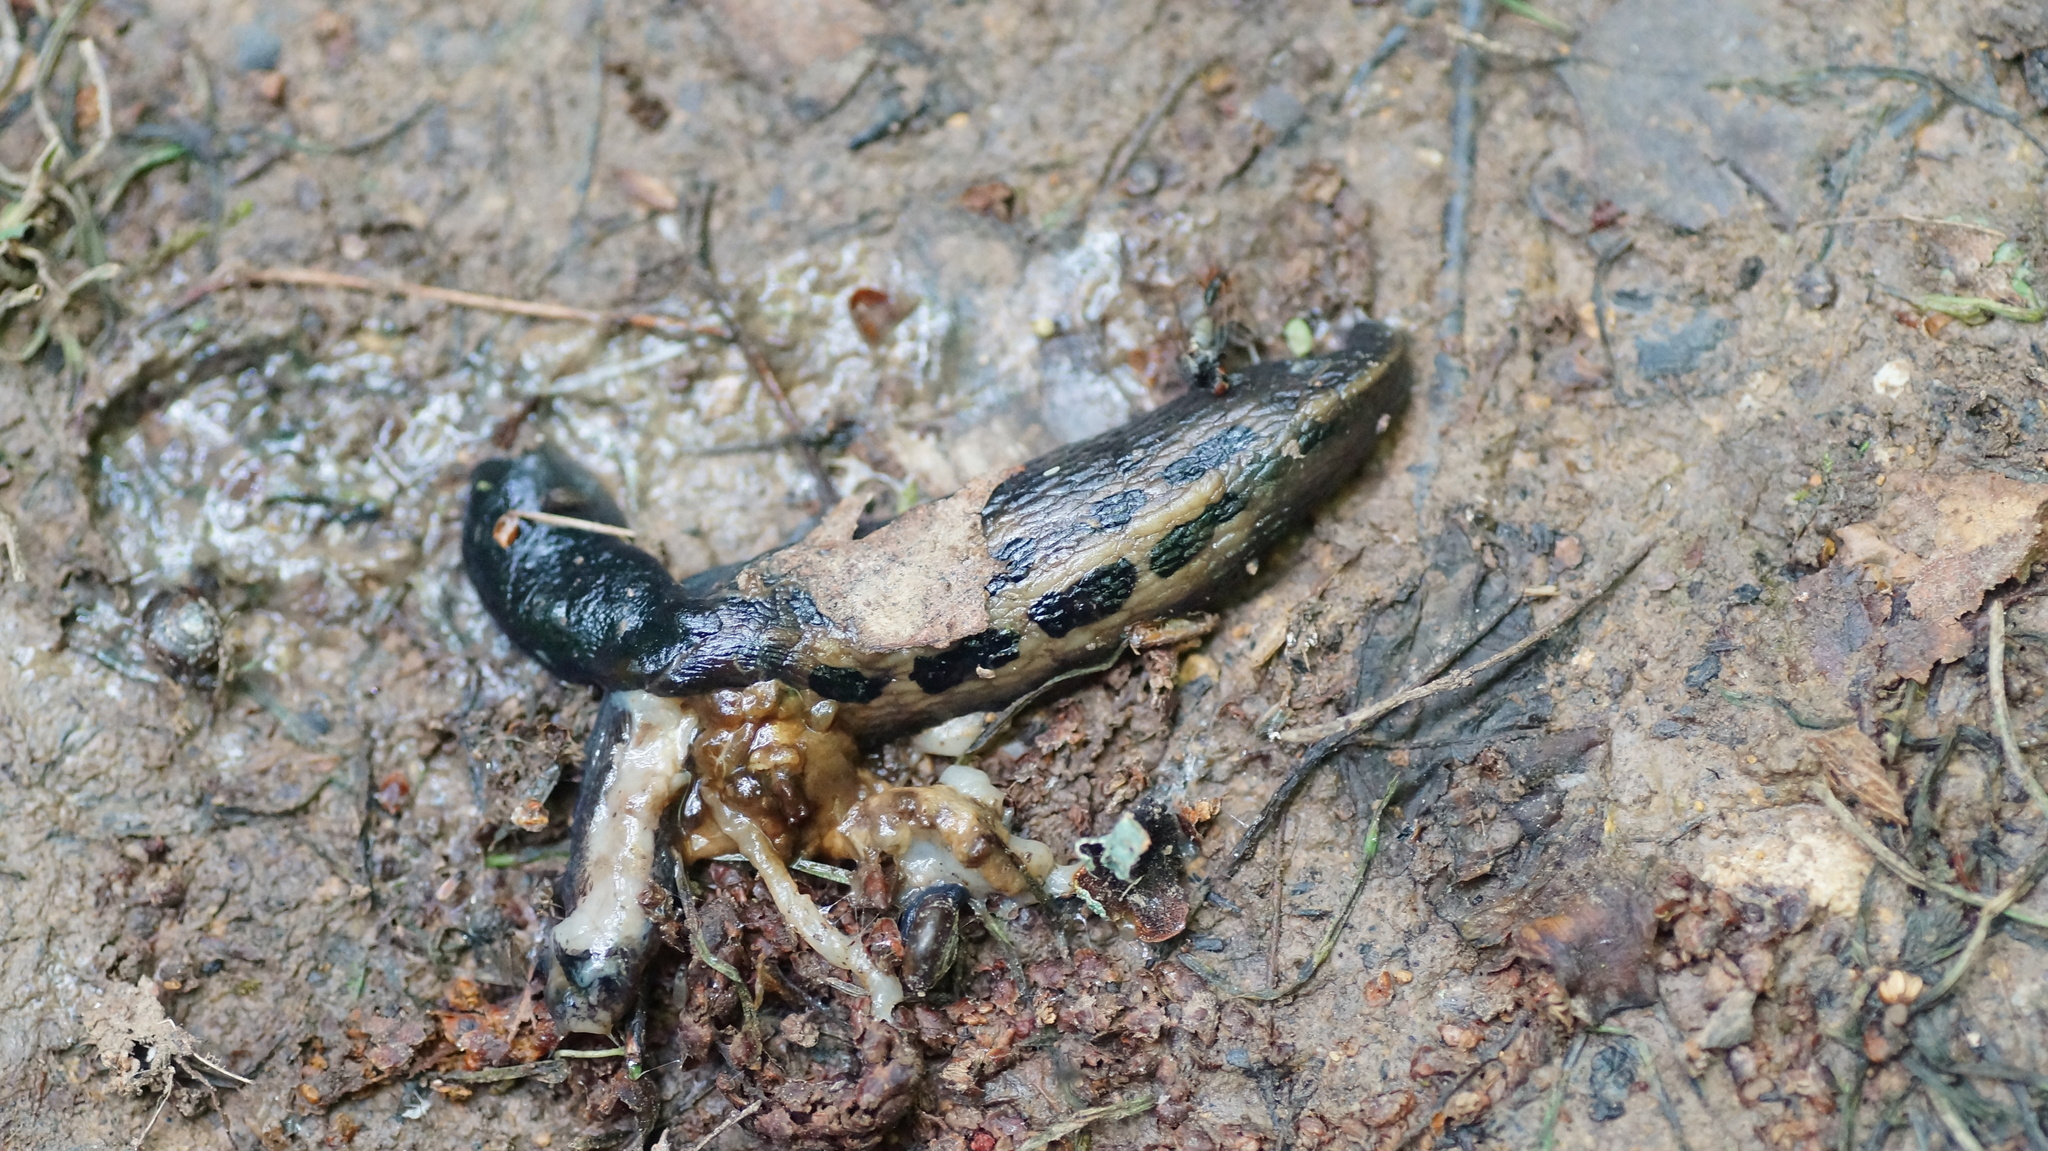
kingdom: Animalia
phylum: Mollusca
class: Gastropoda
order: Stylommatophora
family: Limacidae
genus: Limax
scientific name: Limax cinereoniger
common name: Ash-black slug
